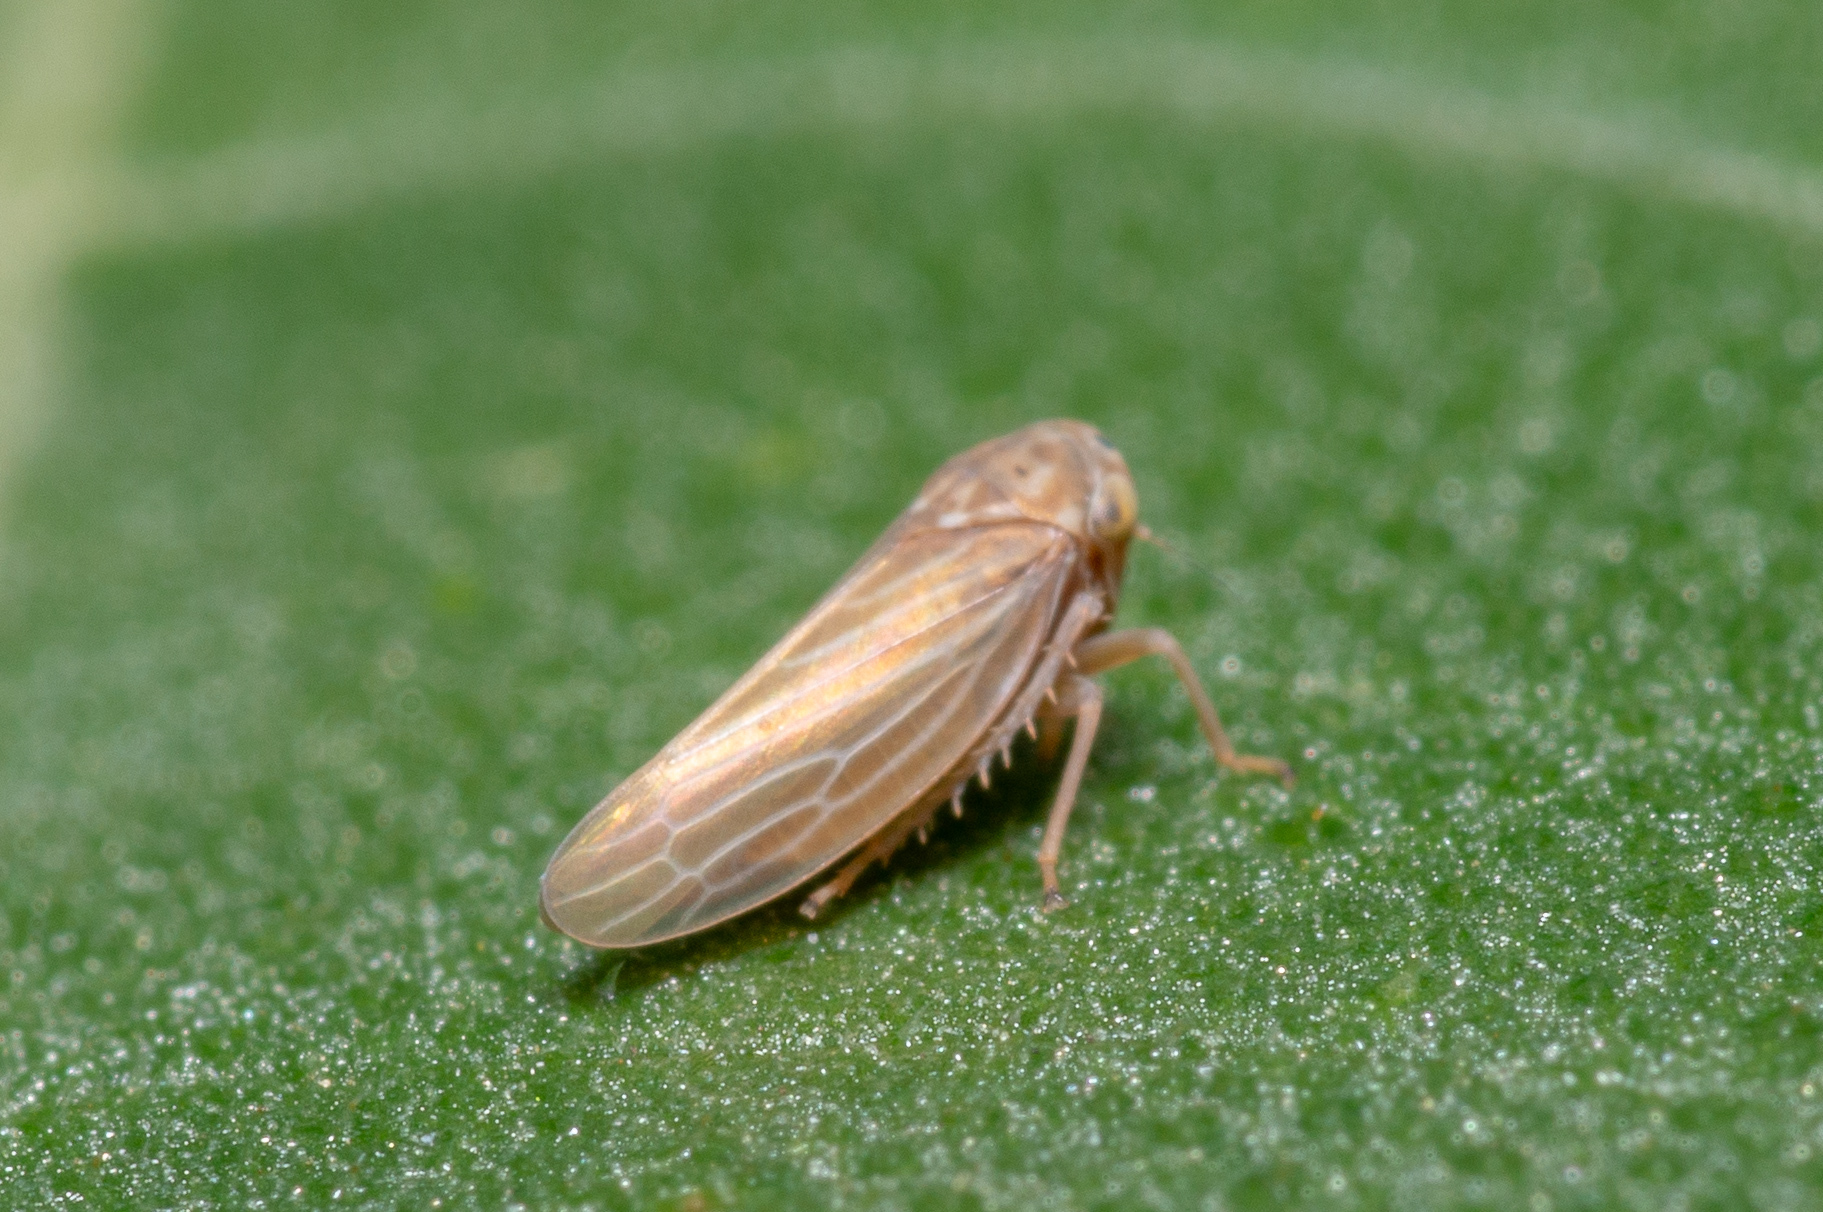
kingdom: Animalia
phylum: Arthropoda
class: Insecta
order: Hemiptera
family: Cicadellidae
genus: Agallia
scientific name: Agallia constricta
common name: The constricted leafhopper
